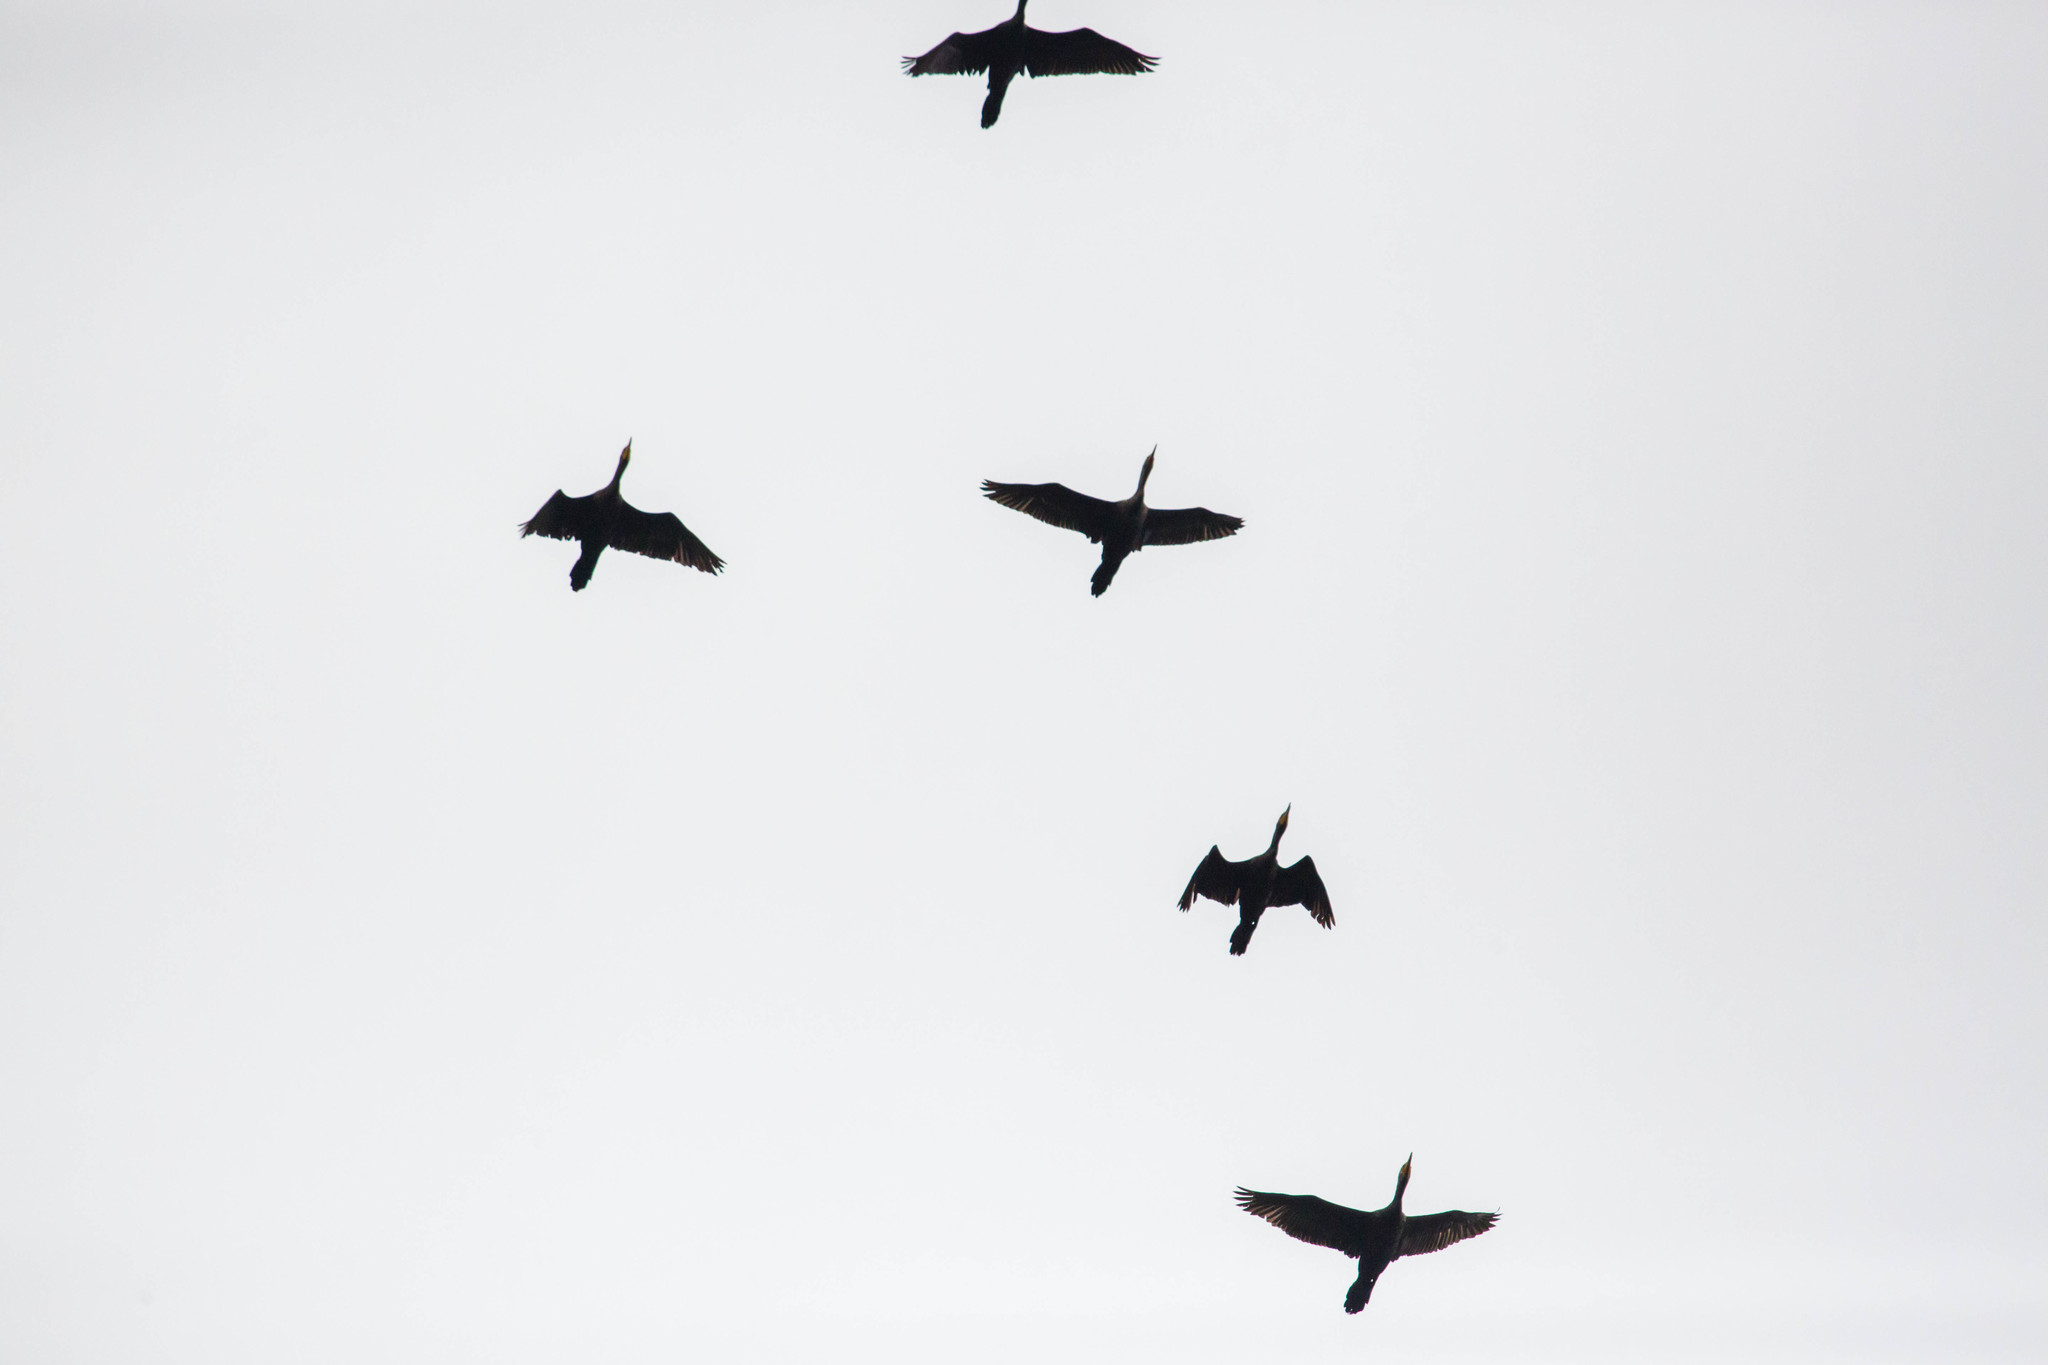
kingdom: Animalia
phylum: Chordata
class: Aves
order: Suliformes
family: Phalacrocoracidae
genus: Phalacrocorax
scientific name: Phalacrocorax auritus
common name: Double-crested cormorant
